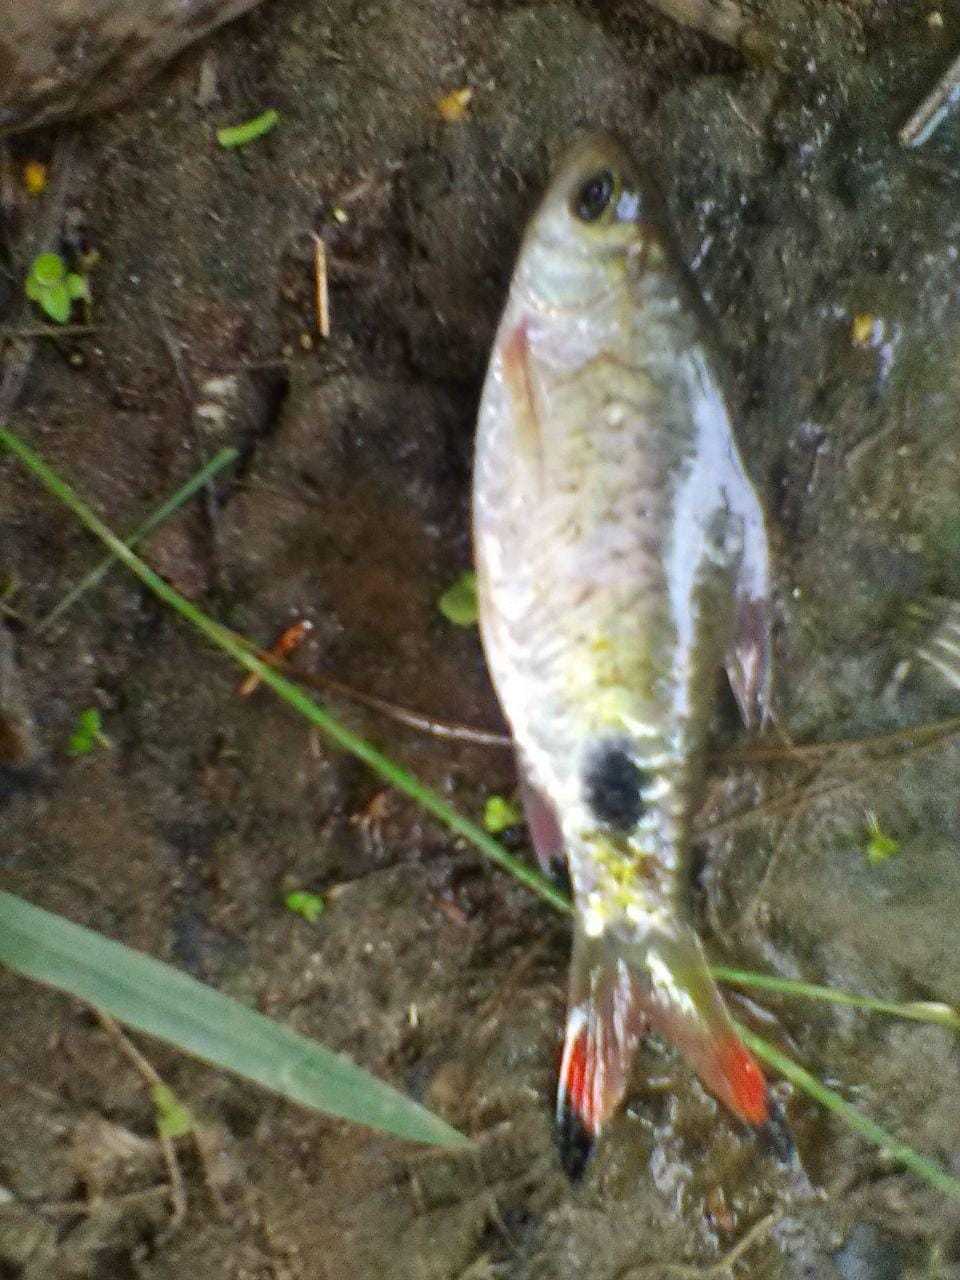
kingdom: Animalia
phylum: Chordata
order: Cypriniformes
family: Cyprinidae
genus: Dawkinsia
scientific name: Dawkinsia filamentosa
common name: Filament barb
